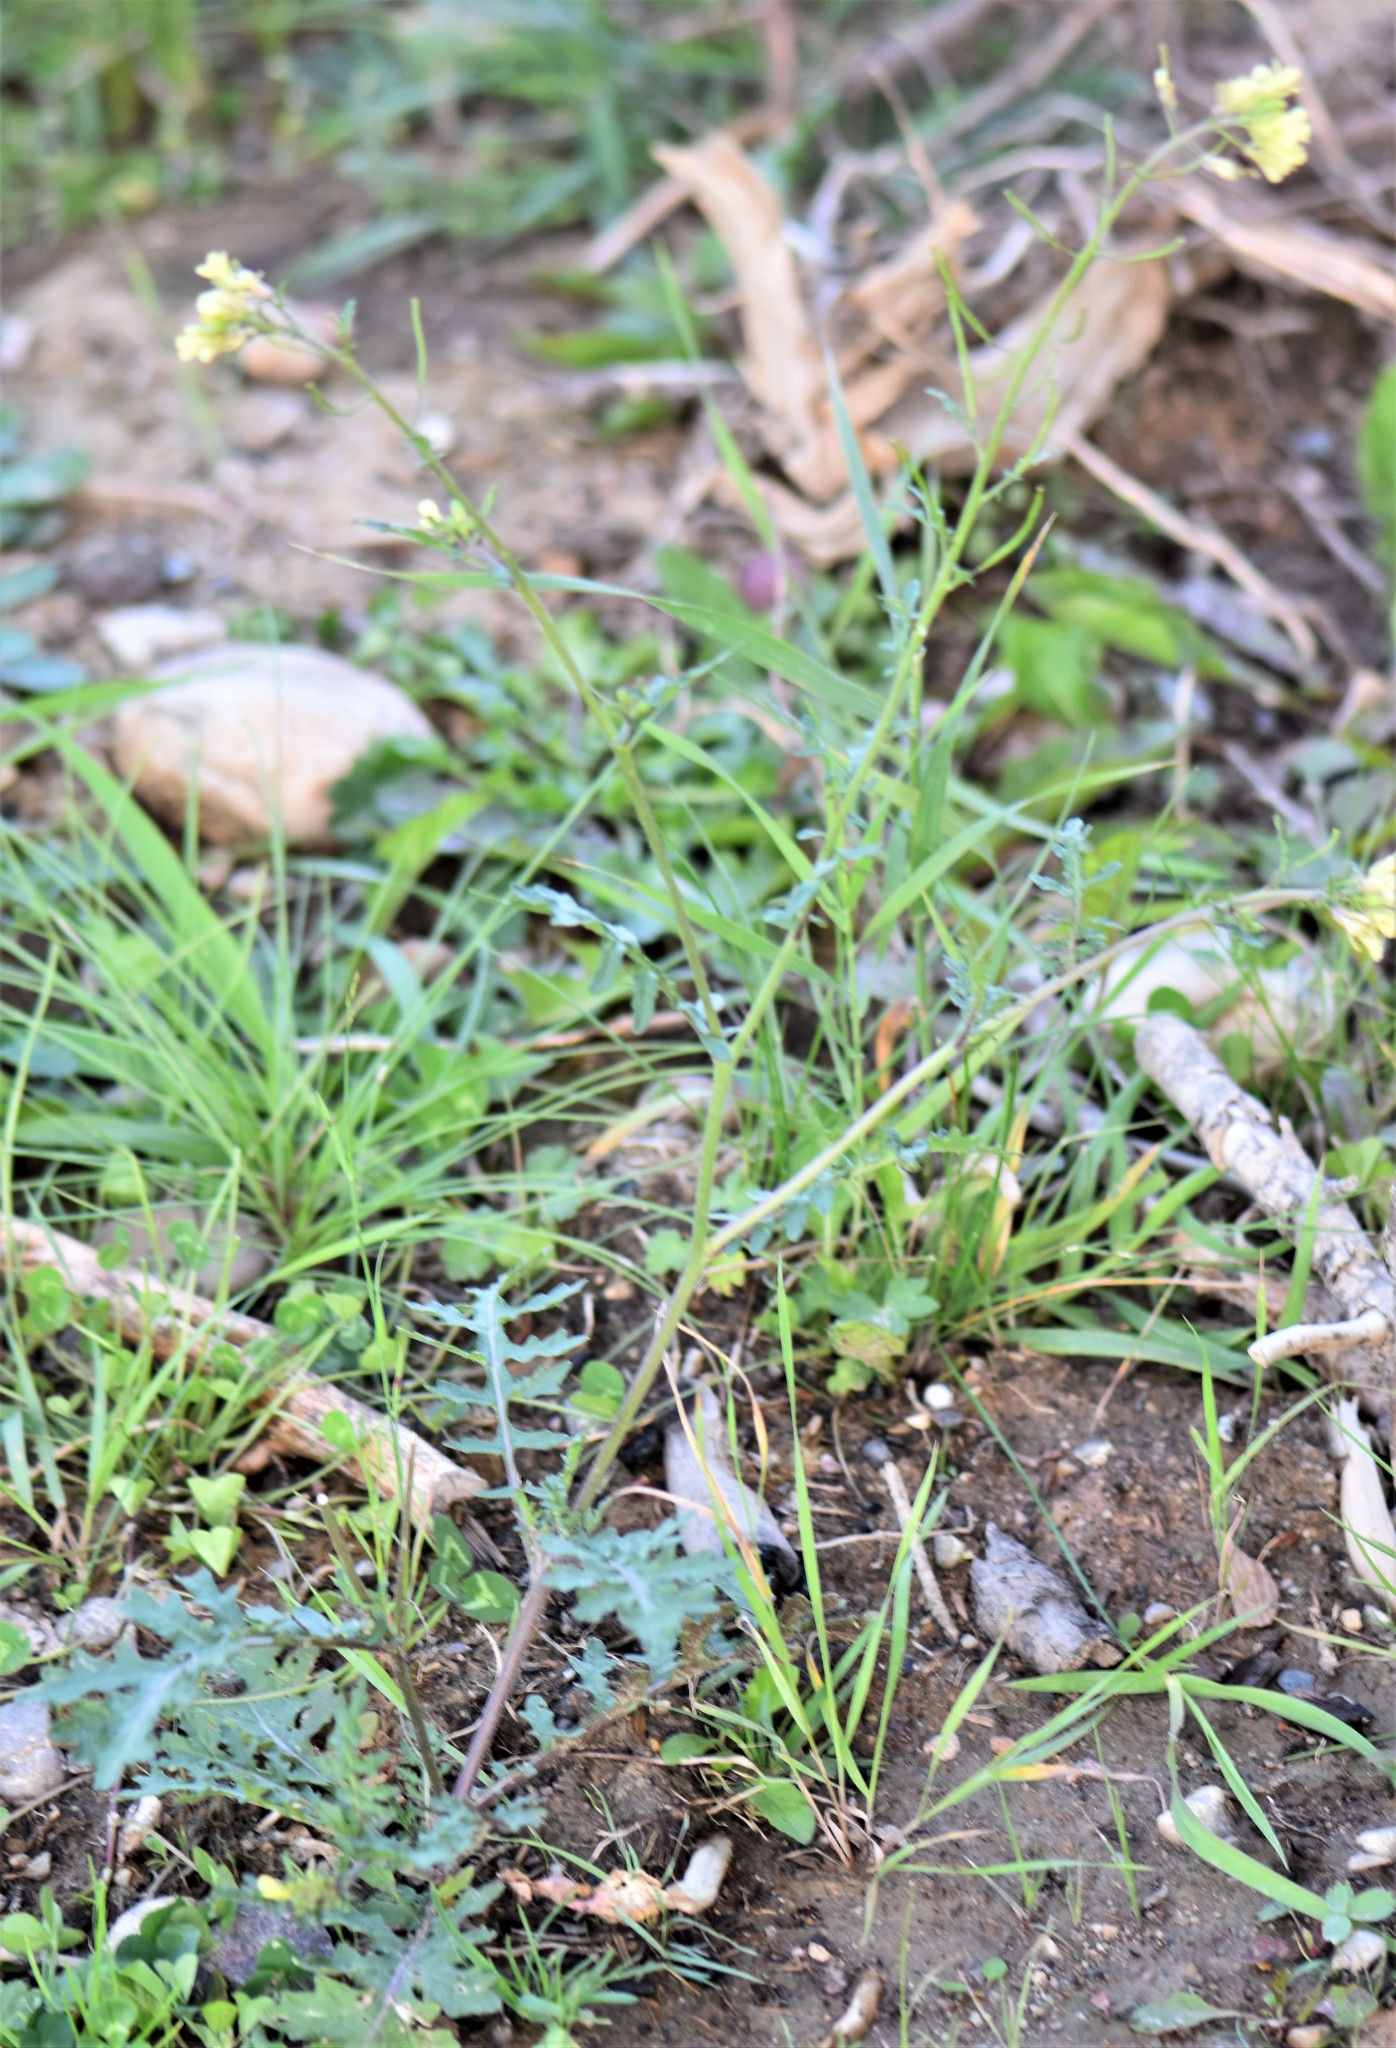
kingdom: Plantae
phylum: Tracheophyta
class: Magnoliopsida
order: Brassicales
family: Brassicaceae
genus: Erucastrum
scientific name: Erucastrum gallicum
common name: Hairy rocket
